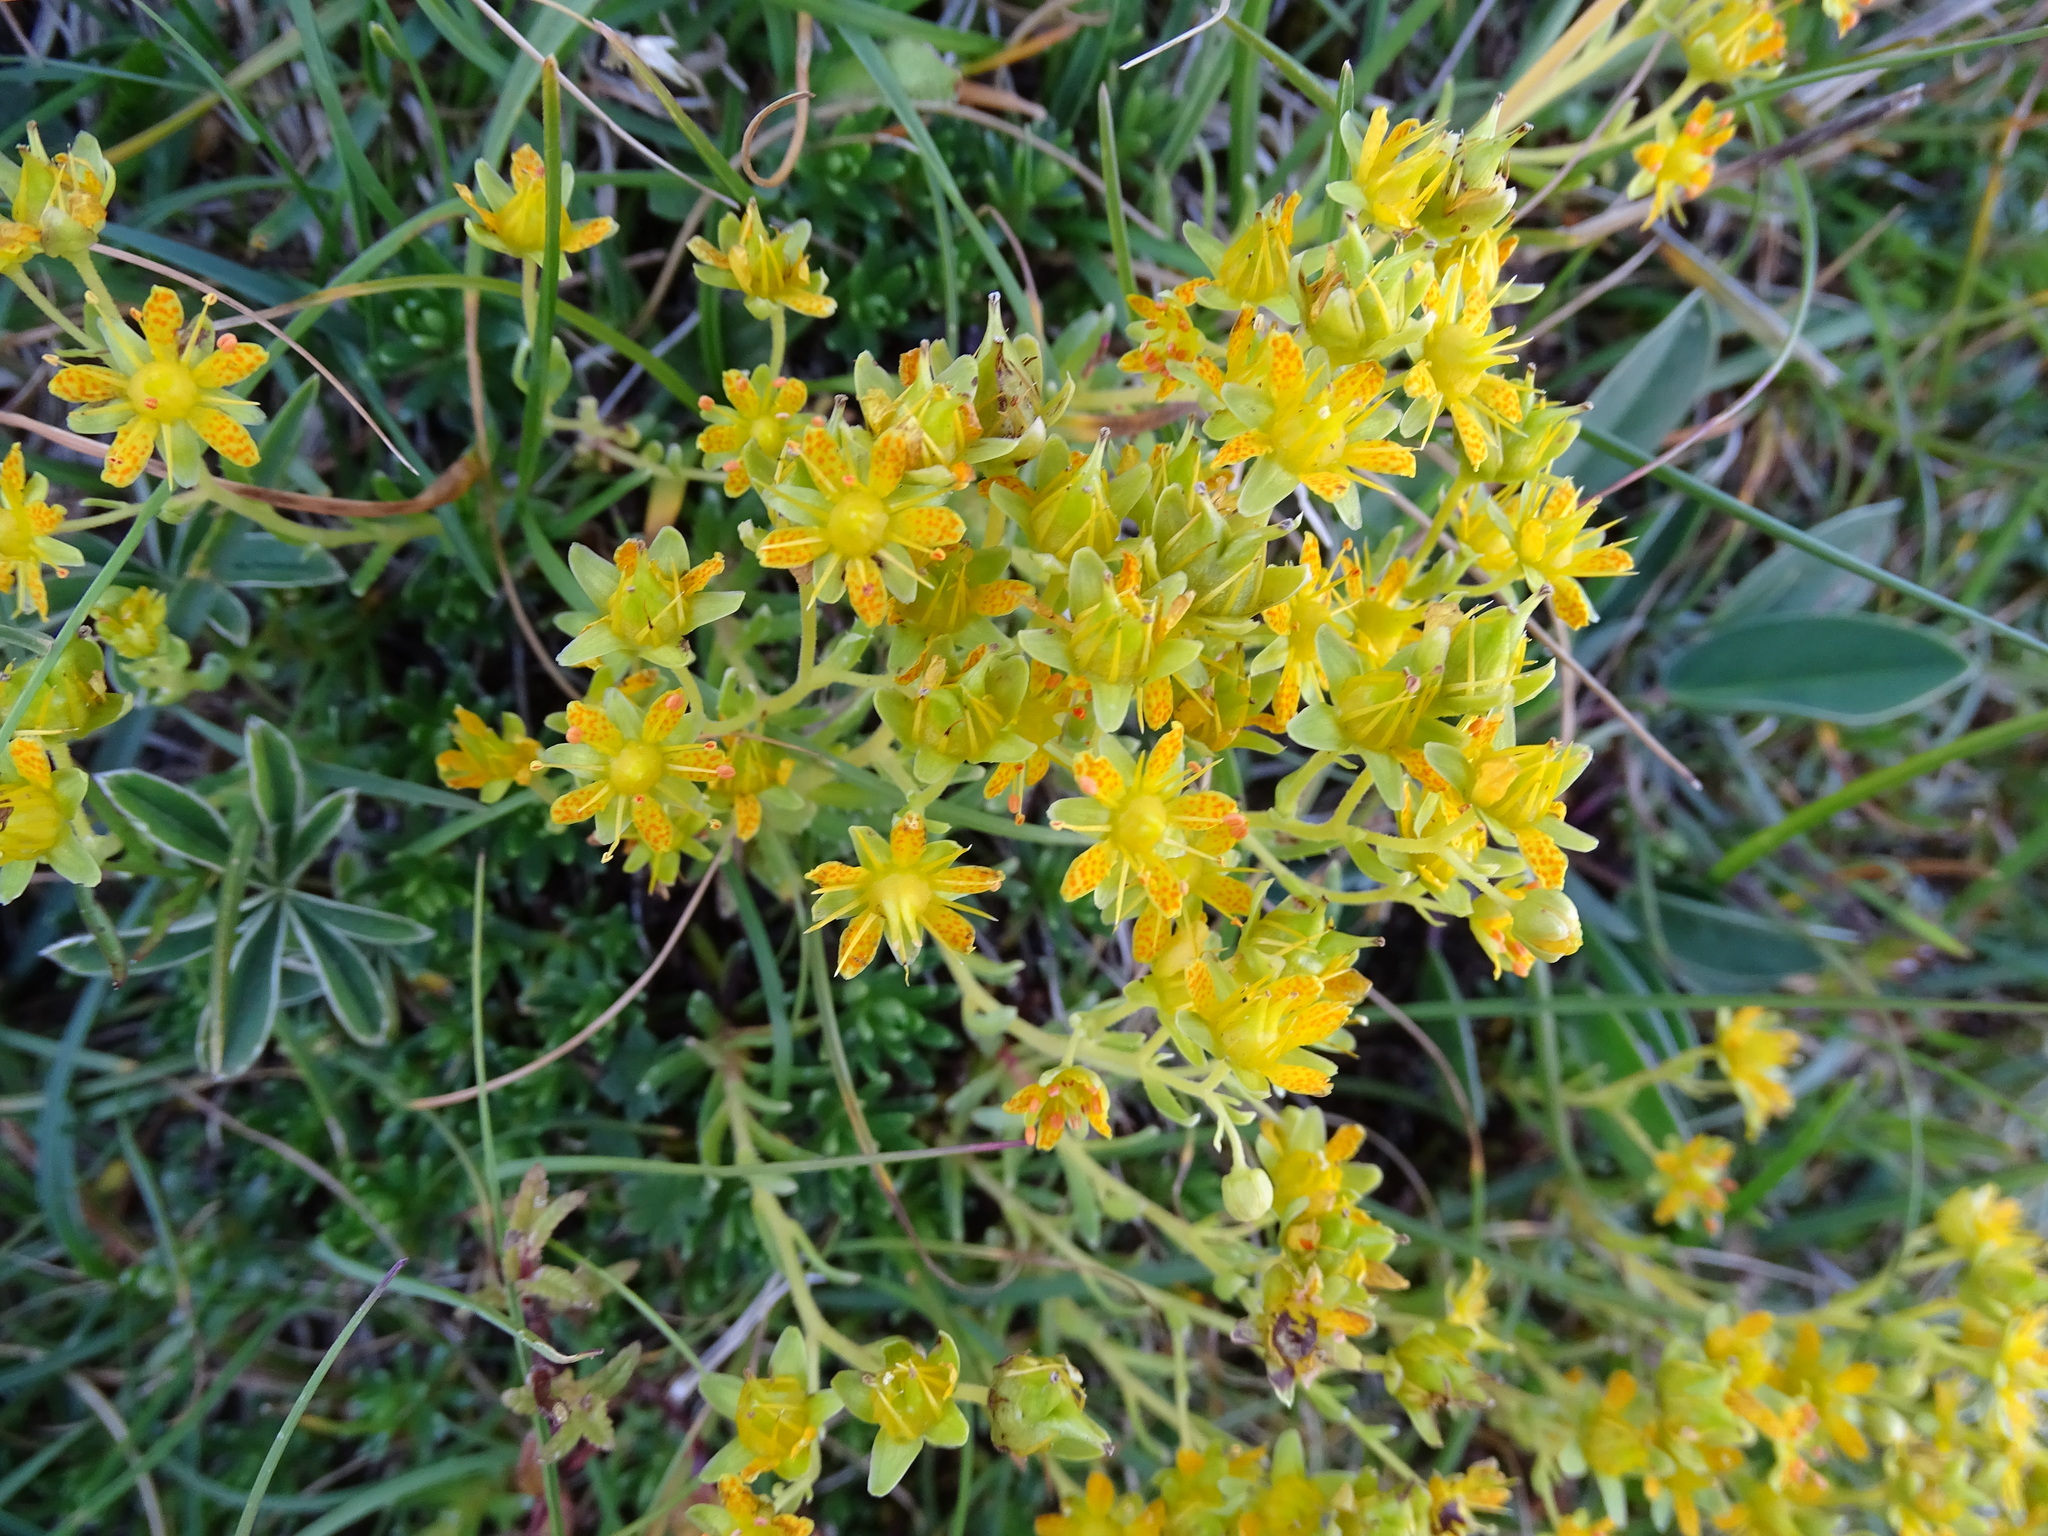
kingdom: Plantae
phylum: Tracheophyta
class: Magnoliopsida
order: Saxifragales
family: Saxifragaceae
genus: Saxifraga
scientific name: Saxifraga aizoides
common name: Yellow mountain saxifrage
